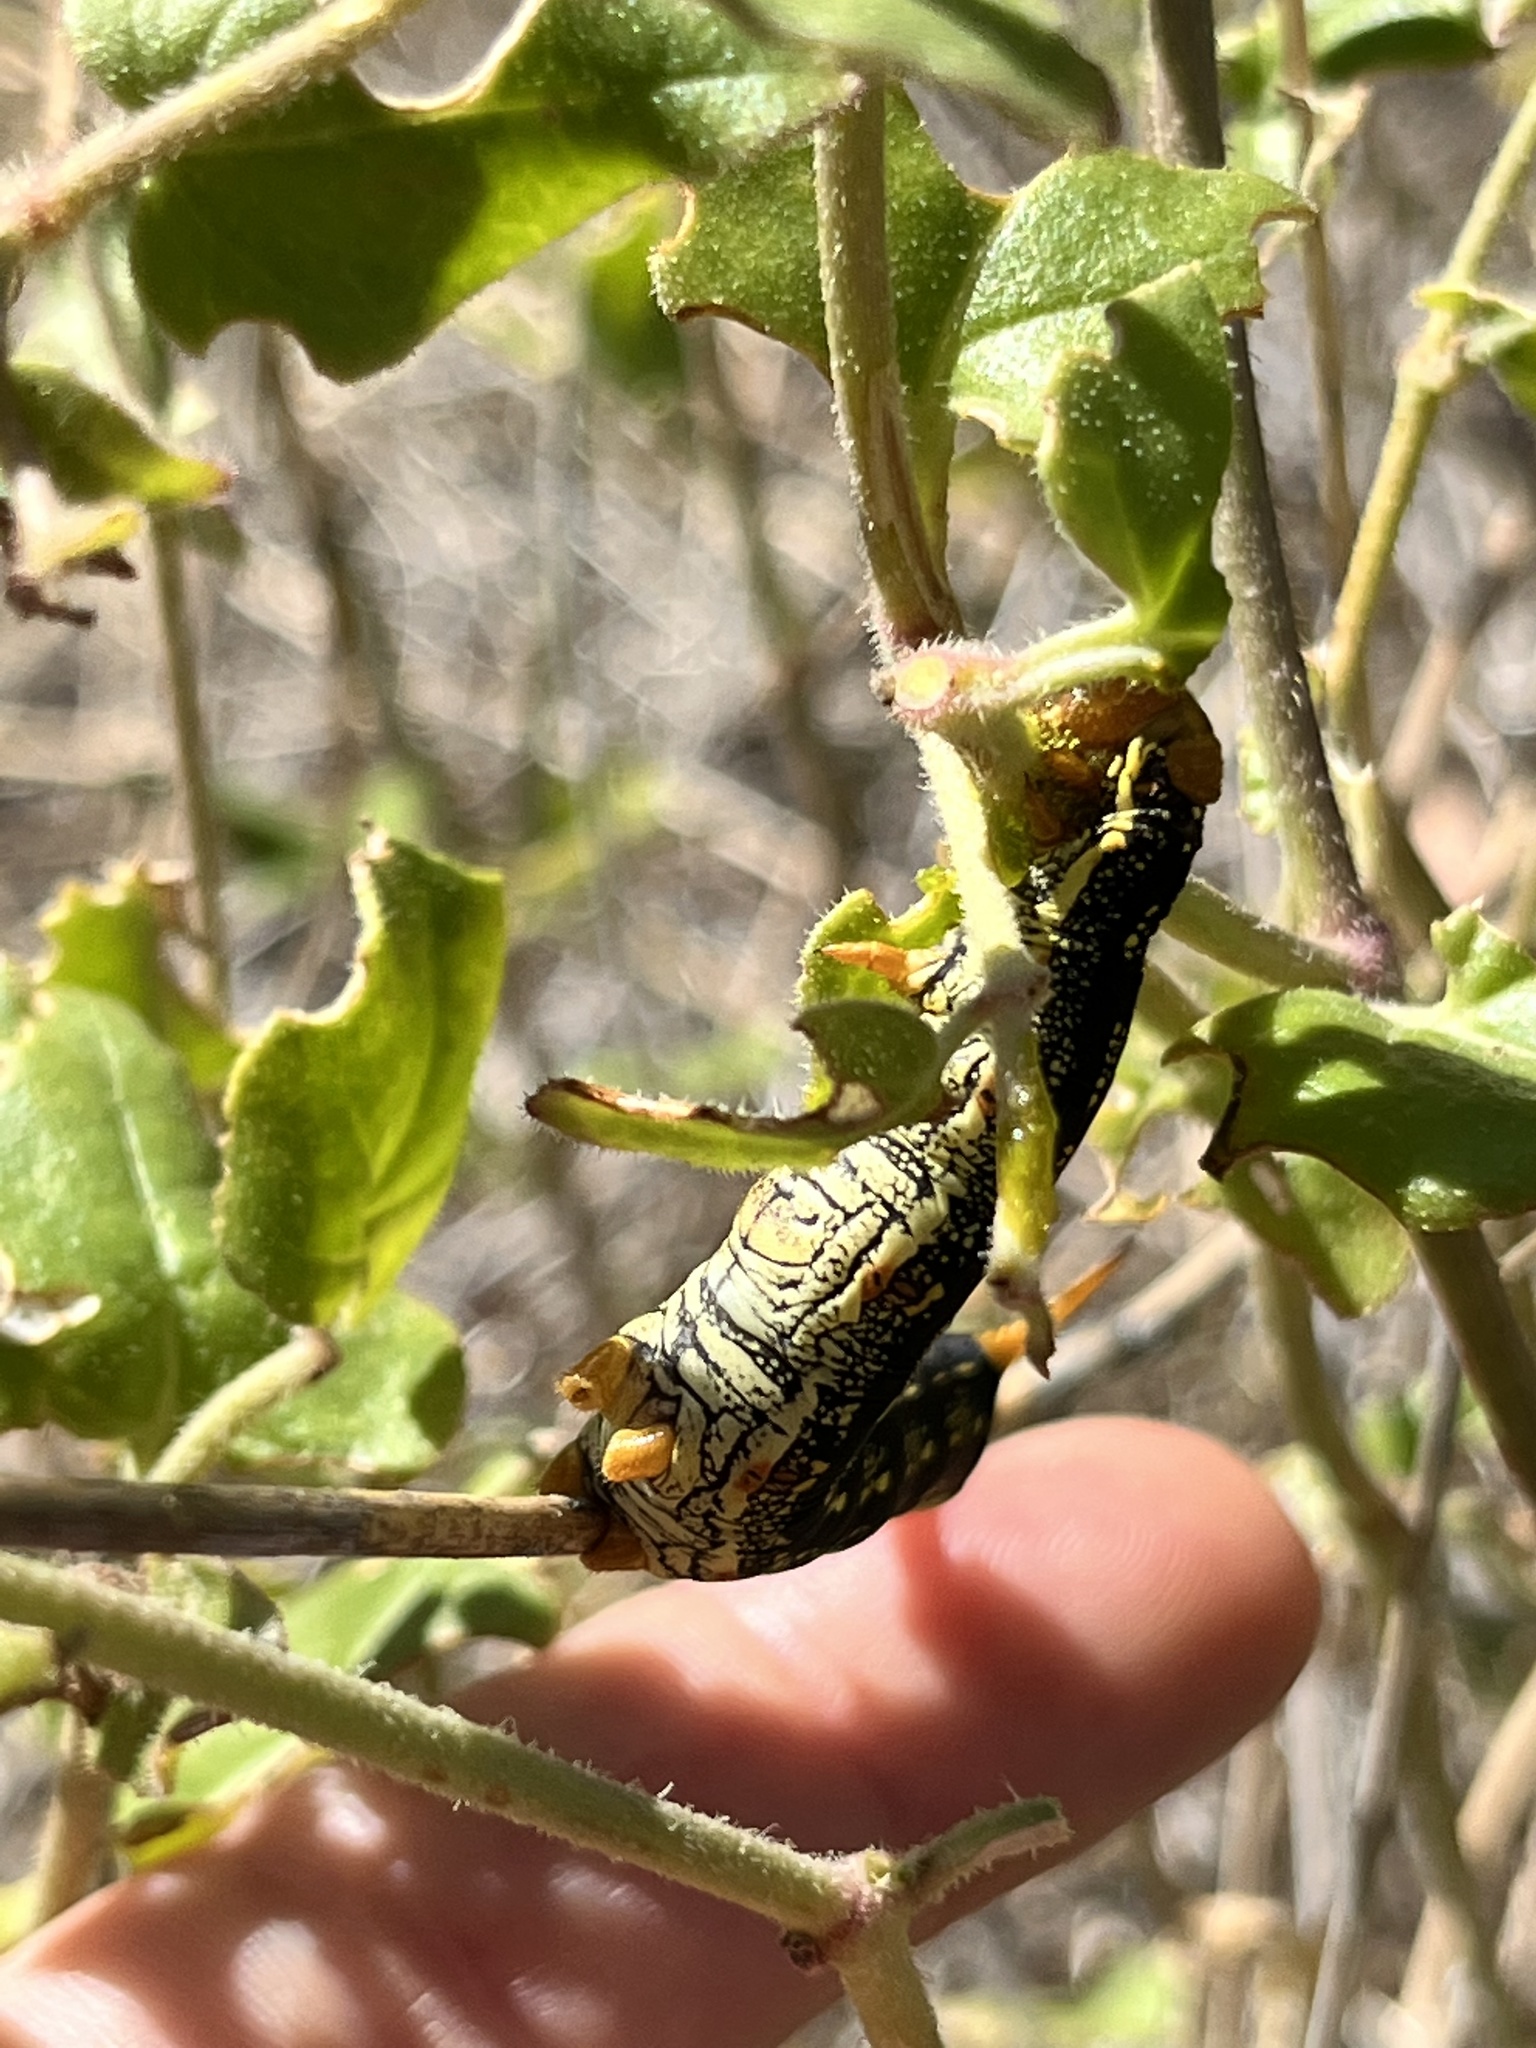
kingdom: Animalia
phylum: Arthropoda
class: Insecta
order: Lepidoptera
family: Sphingidae
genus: Hyles
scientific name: Hyles lineata
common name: White-lined sphinx
